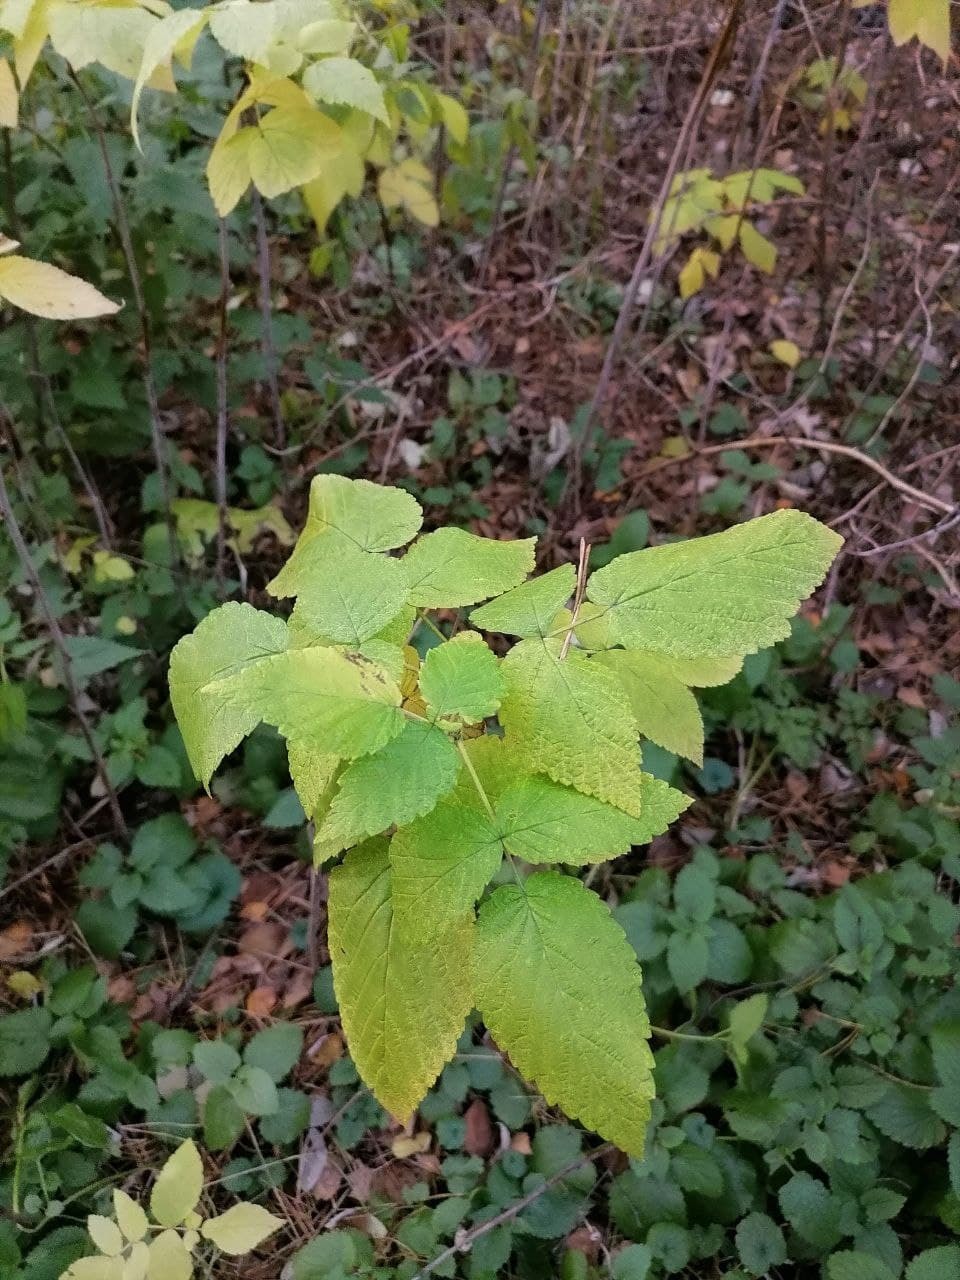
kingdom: Plantae
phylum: Tracheophyta
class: Magnoliopsida
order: Rosales
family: Rosaceae
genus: Rubus
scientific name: Rubus idaeus
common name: Raspberry
